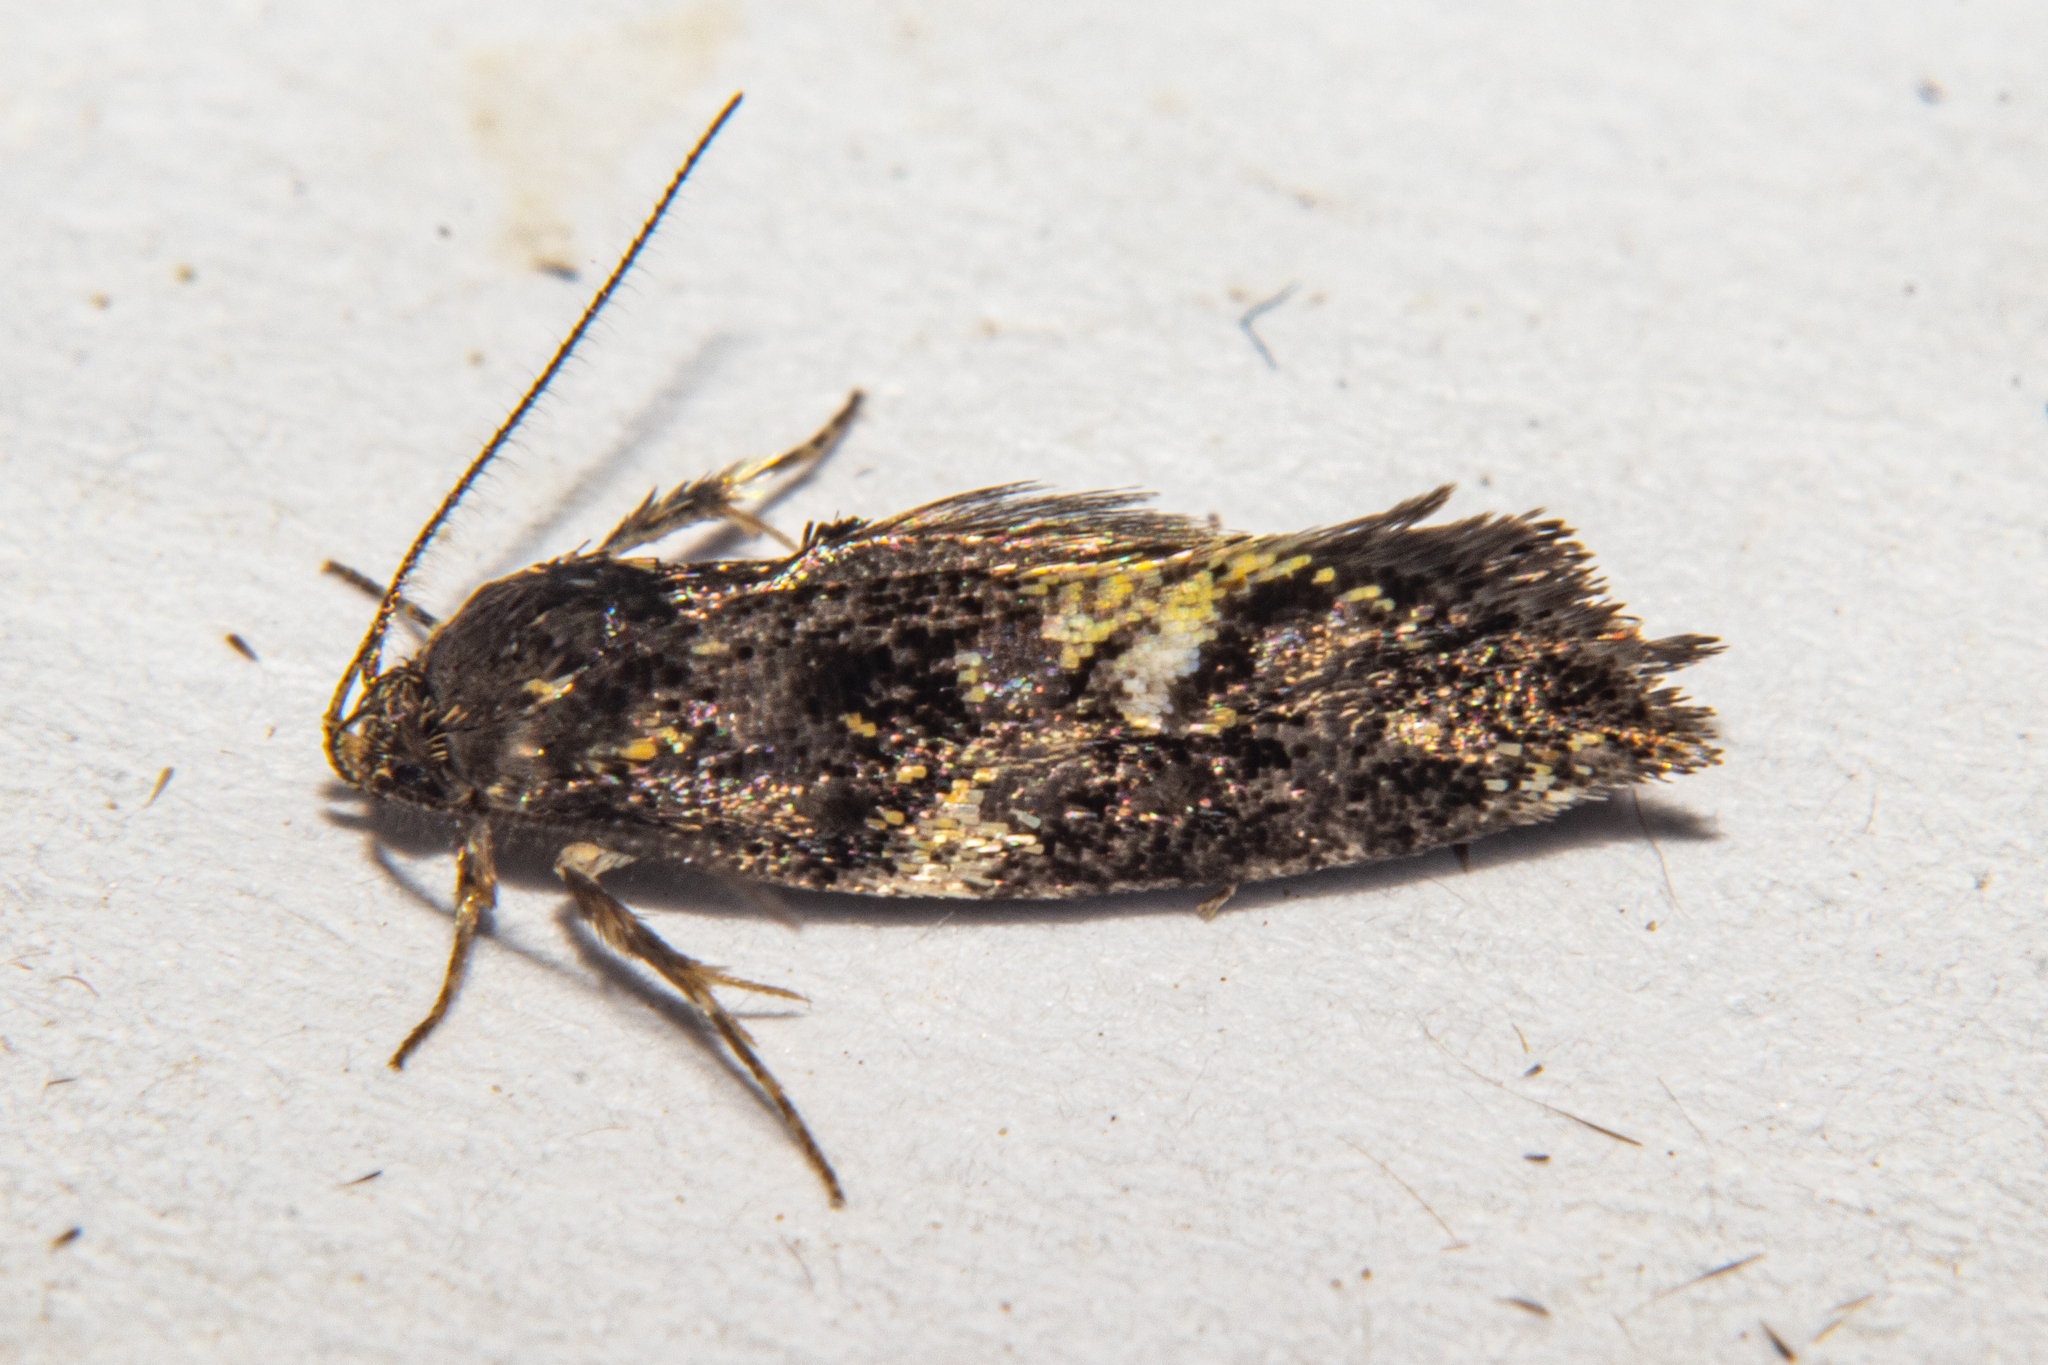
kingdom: Animalia
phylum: Arthropoda
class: Insecta
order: Lepidoptera
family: Oecophoridae
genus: Trachypepla
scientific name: Trachypepla lichenodes
